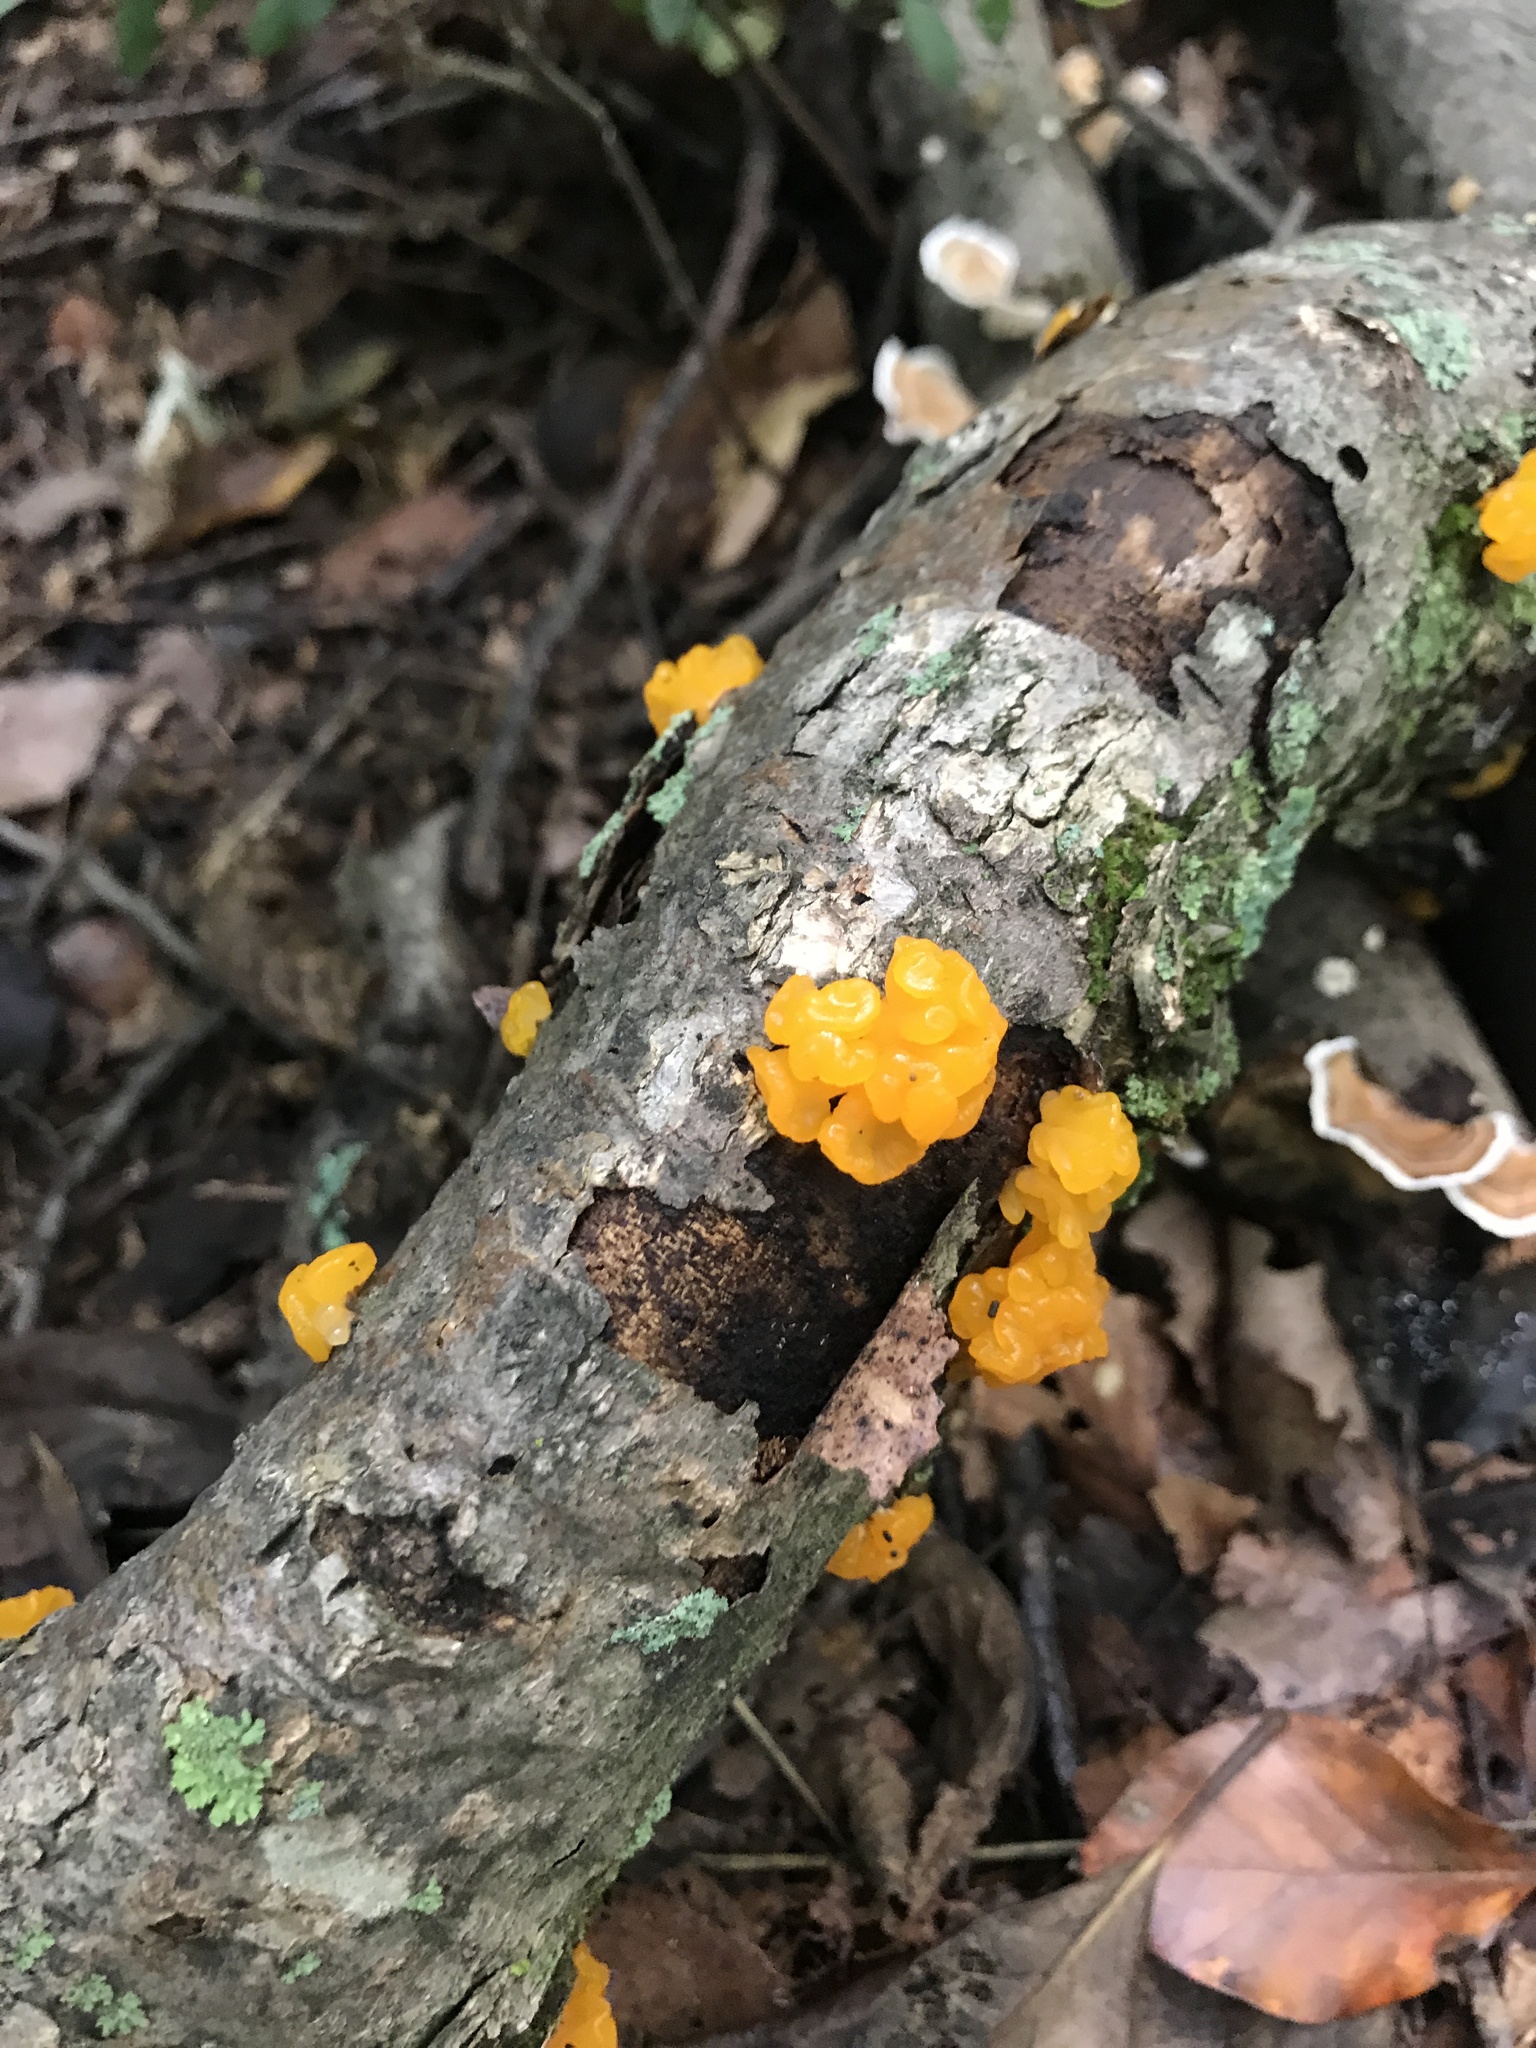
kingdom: Fungi
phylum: Basidiomycota
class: Tremellomycetes
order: Tremellales
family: Tremellaceae
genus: Tremella
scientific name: Tremella mesenterica
